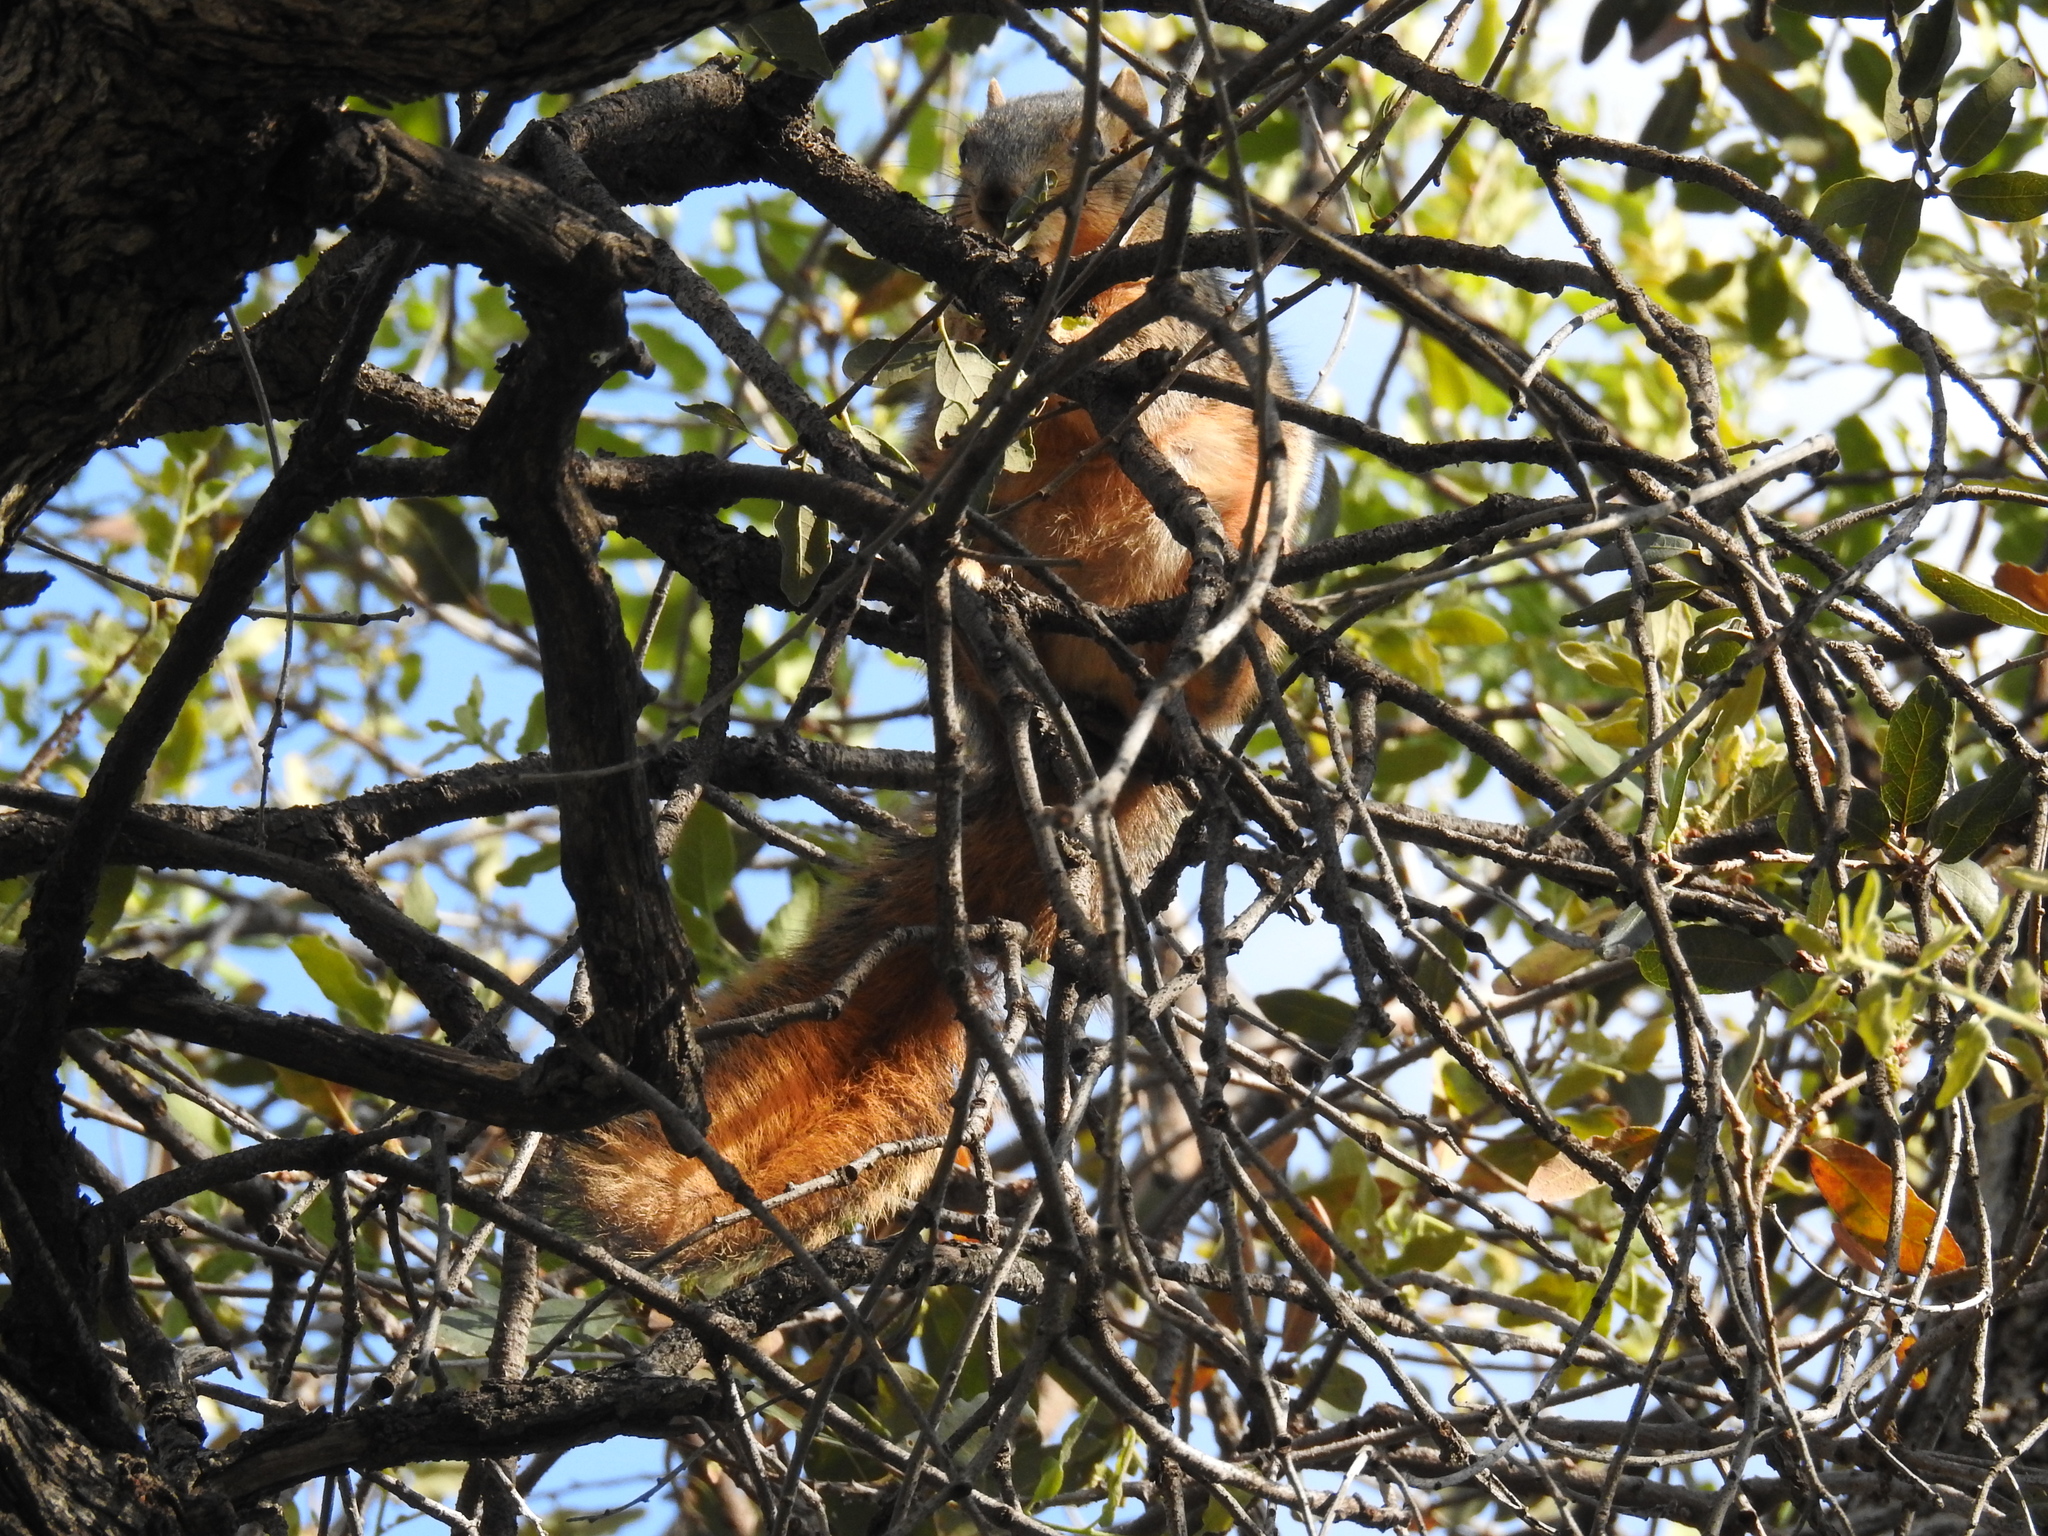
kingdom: Animalia
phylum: Chordata
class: Mammalia
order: Rodentia
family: Sciuridae
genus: Sciurus
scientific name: Sciurus niger
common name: Fox squirrel
